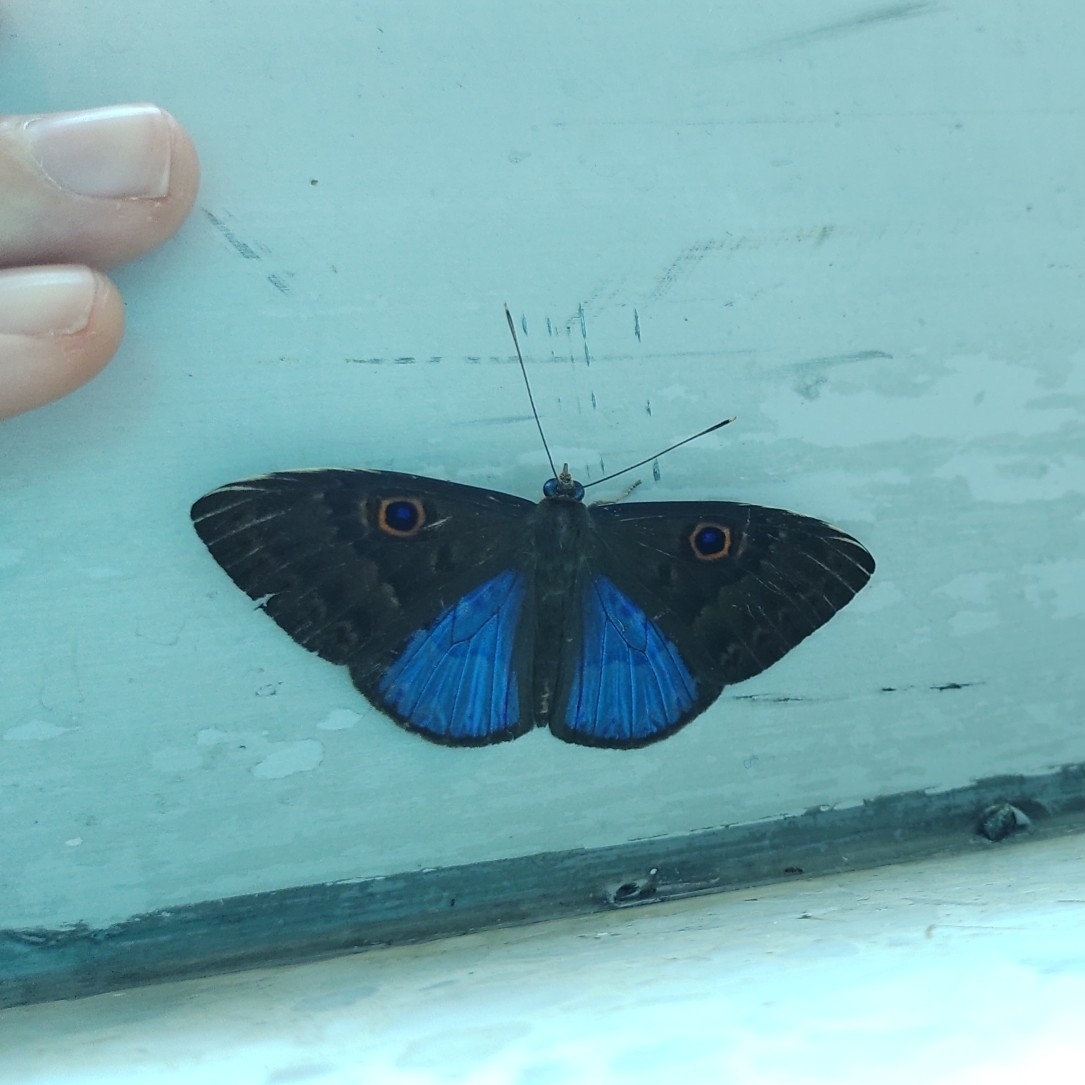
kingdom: Animalia
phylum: Cnidaria
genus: Eurybia
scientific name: Eurybia lycisca
